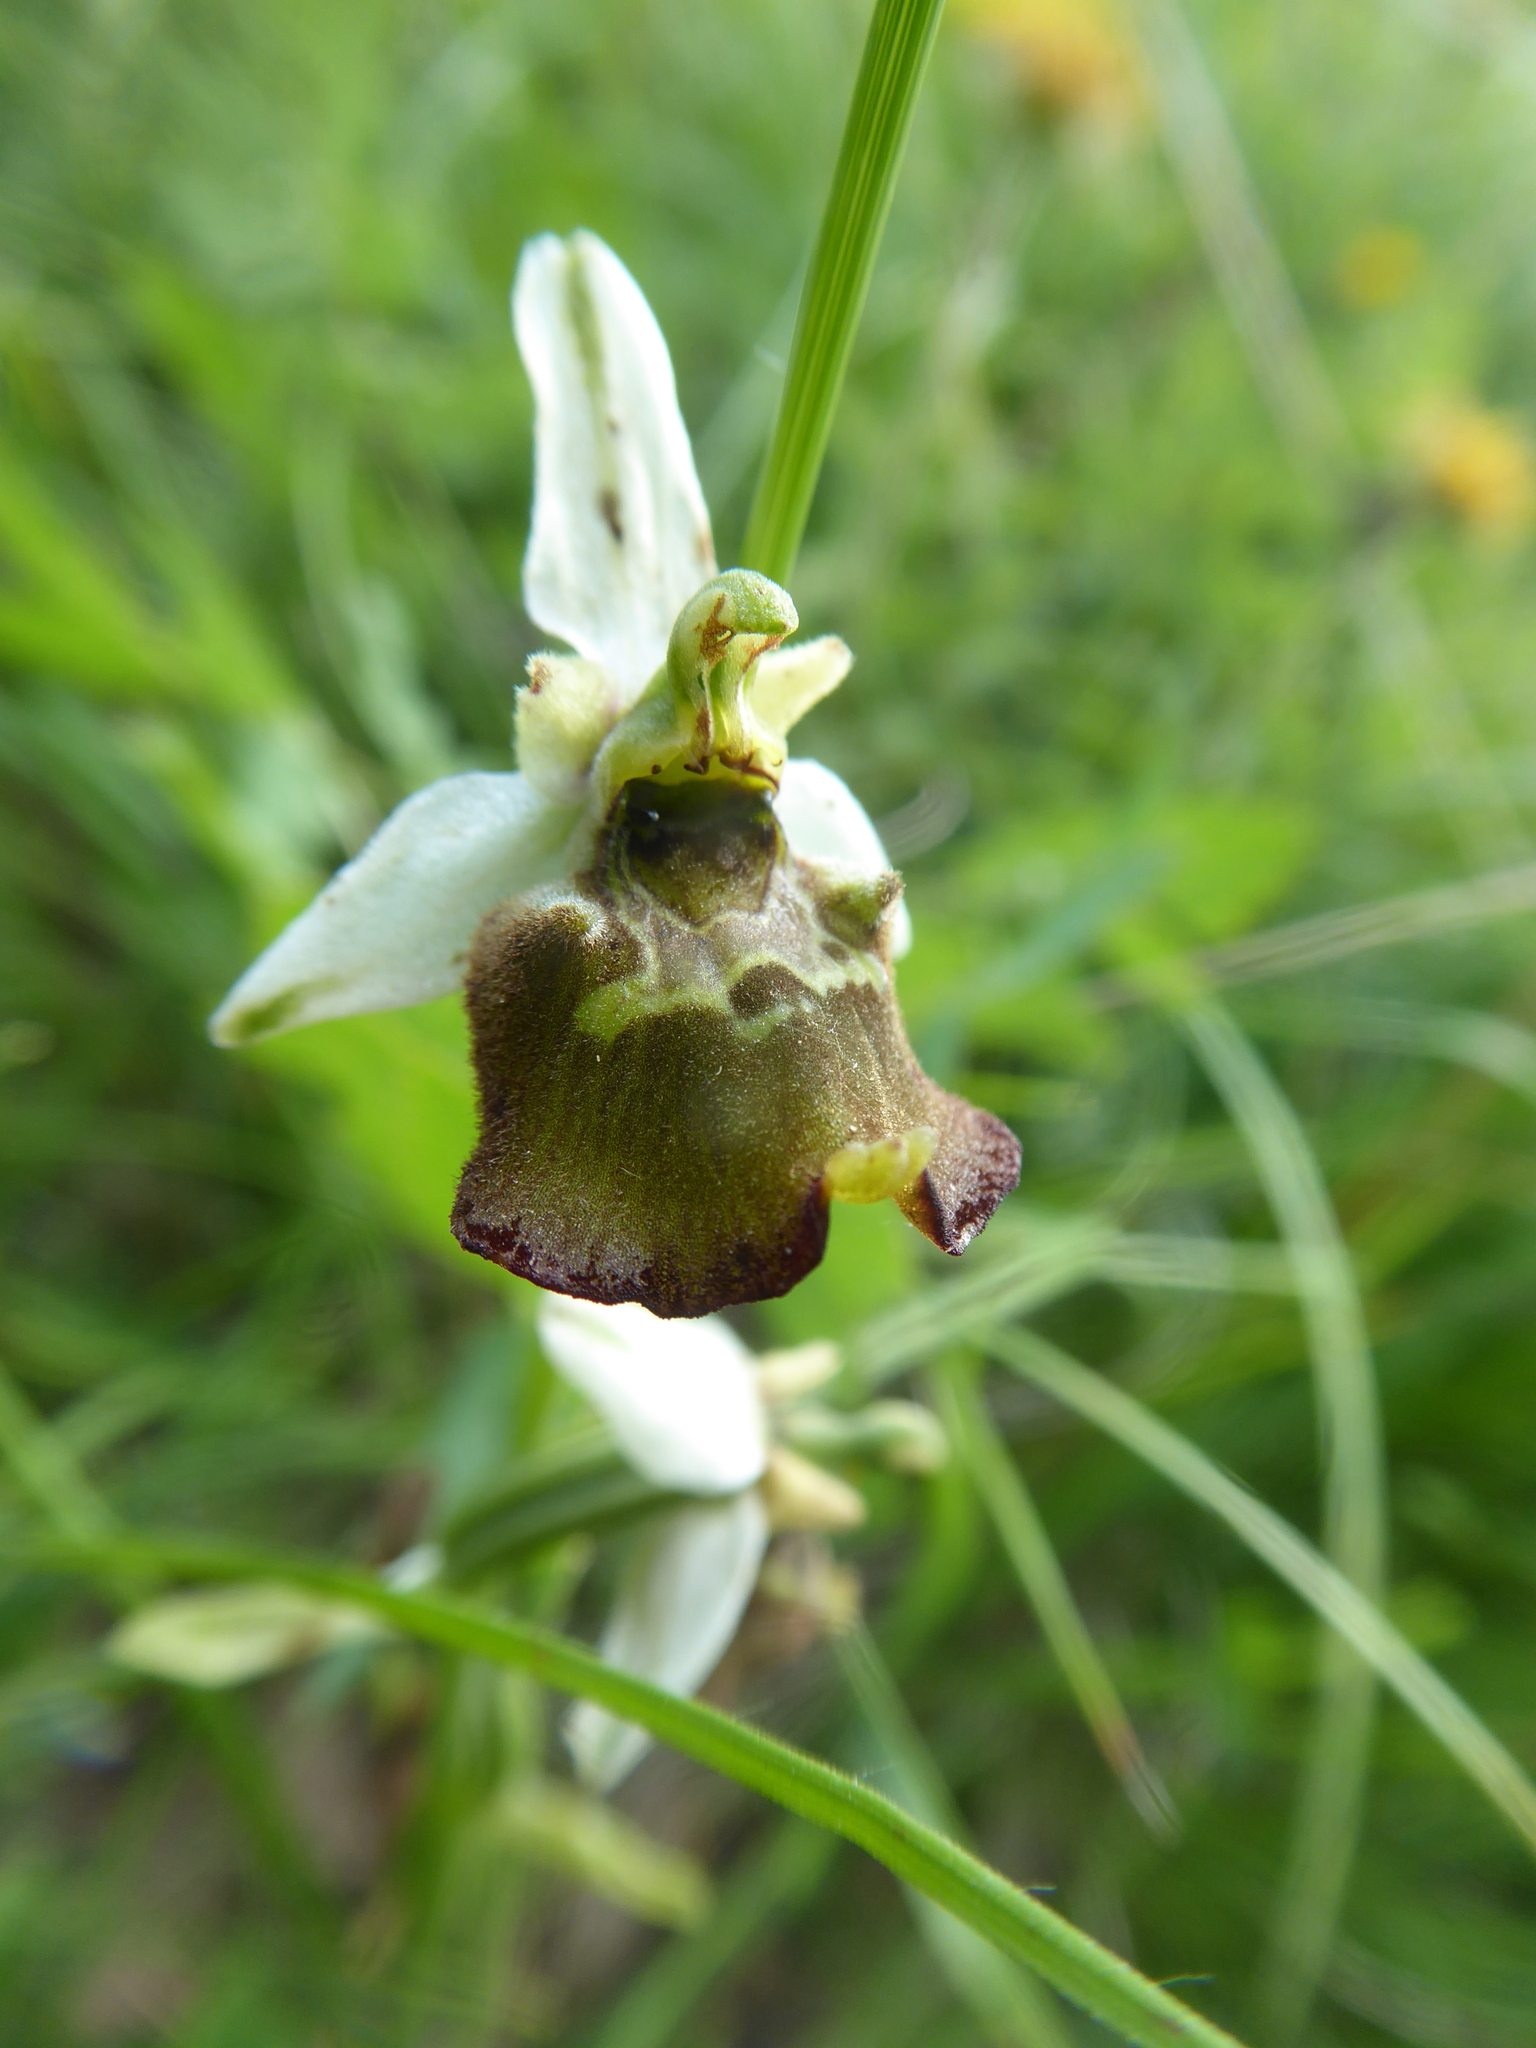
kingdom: Plantae
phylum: Tracheophyta
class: Liliopsida
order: Asparagales
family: Orchidaceae
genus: Ophrys
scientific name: Ophrys holosericea
